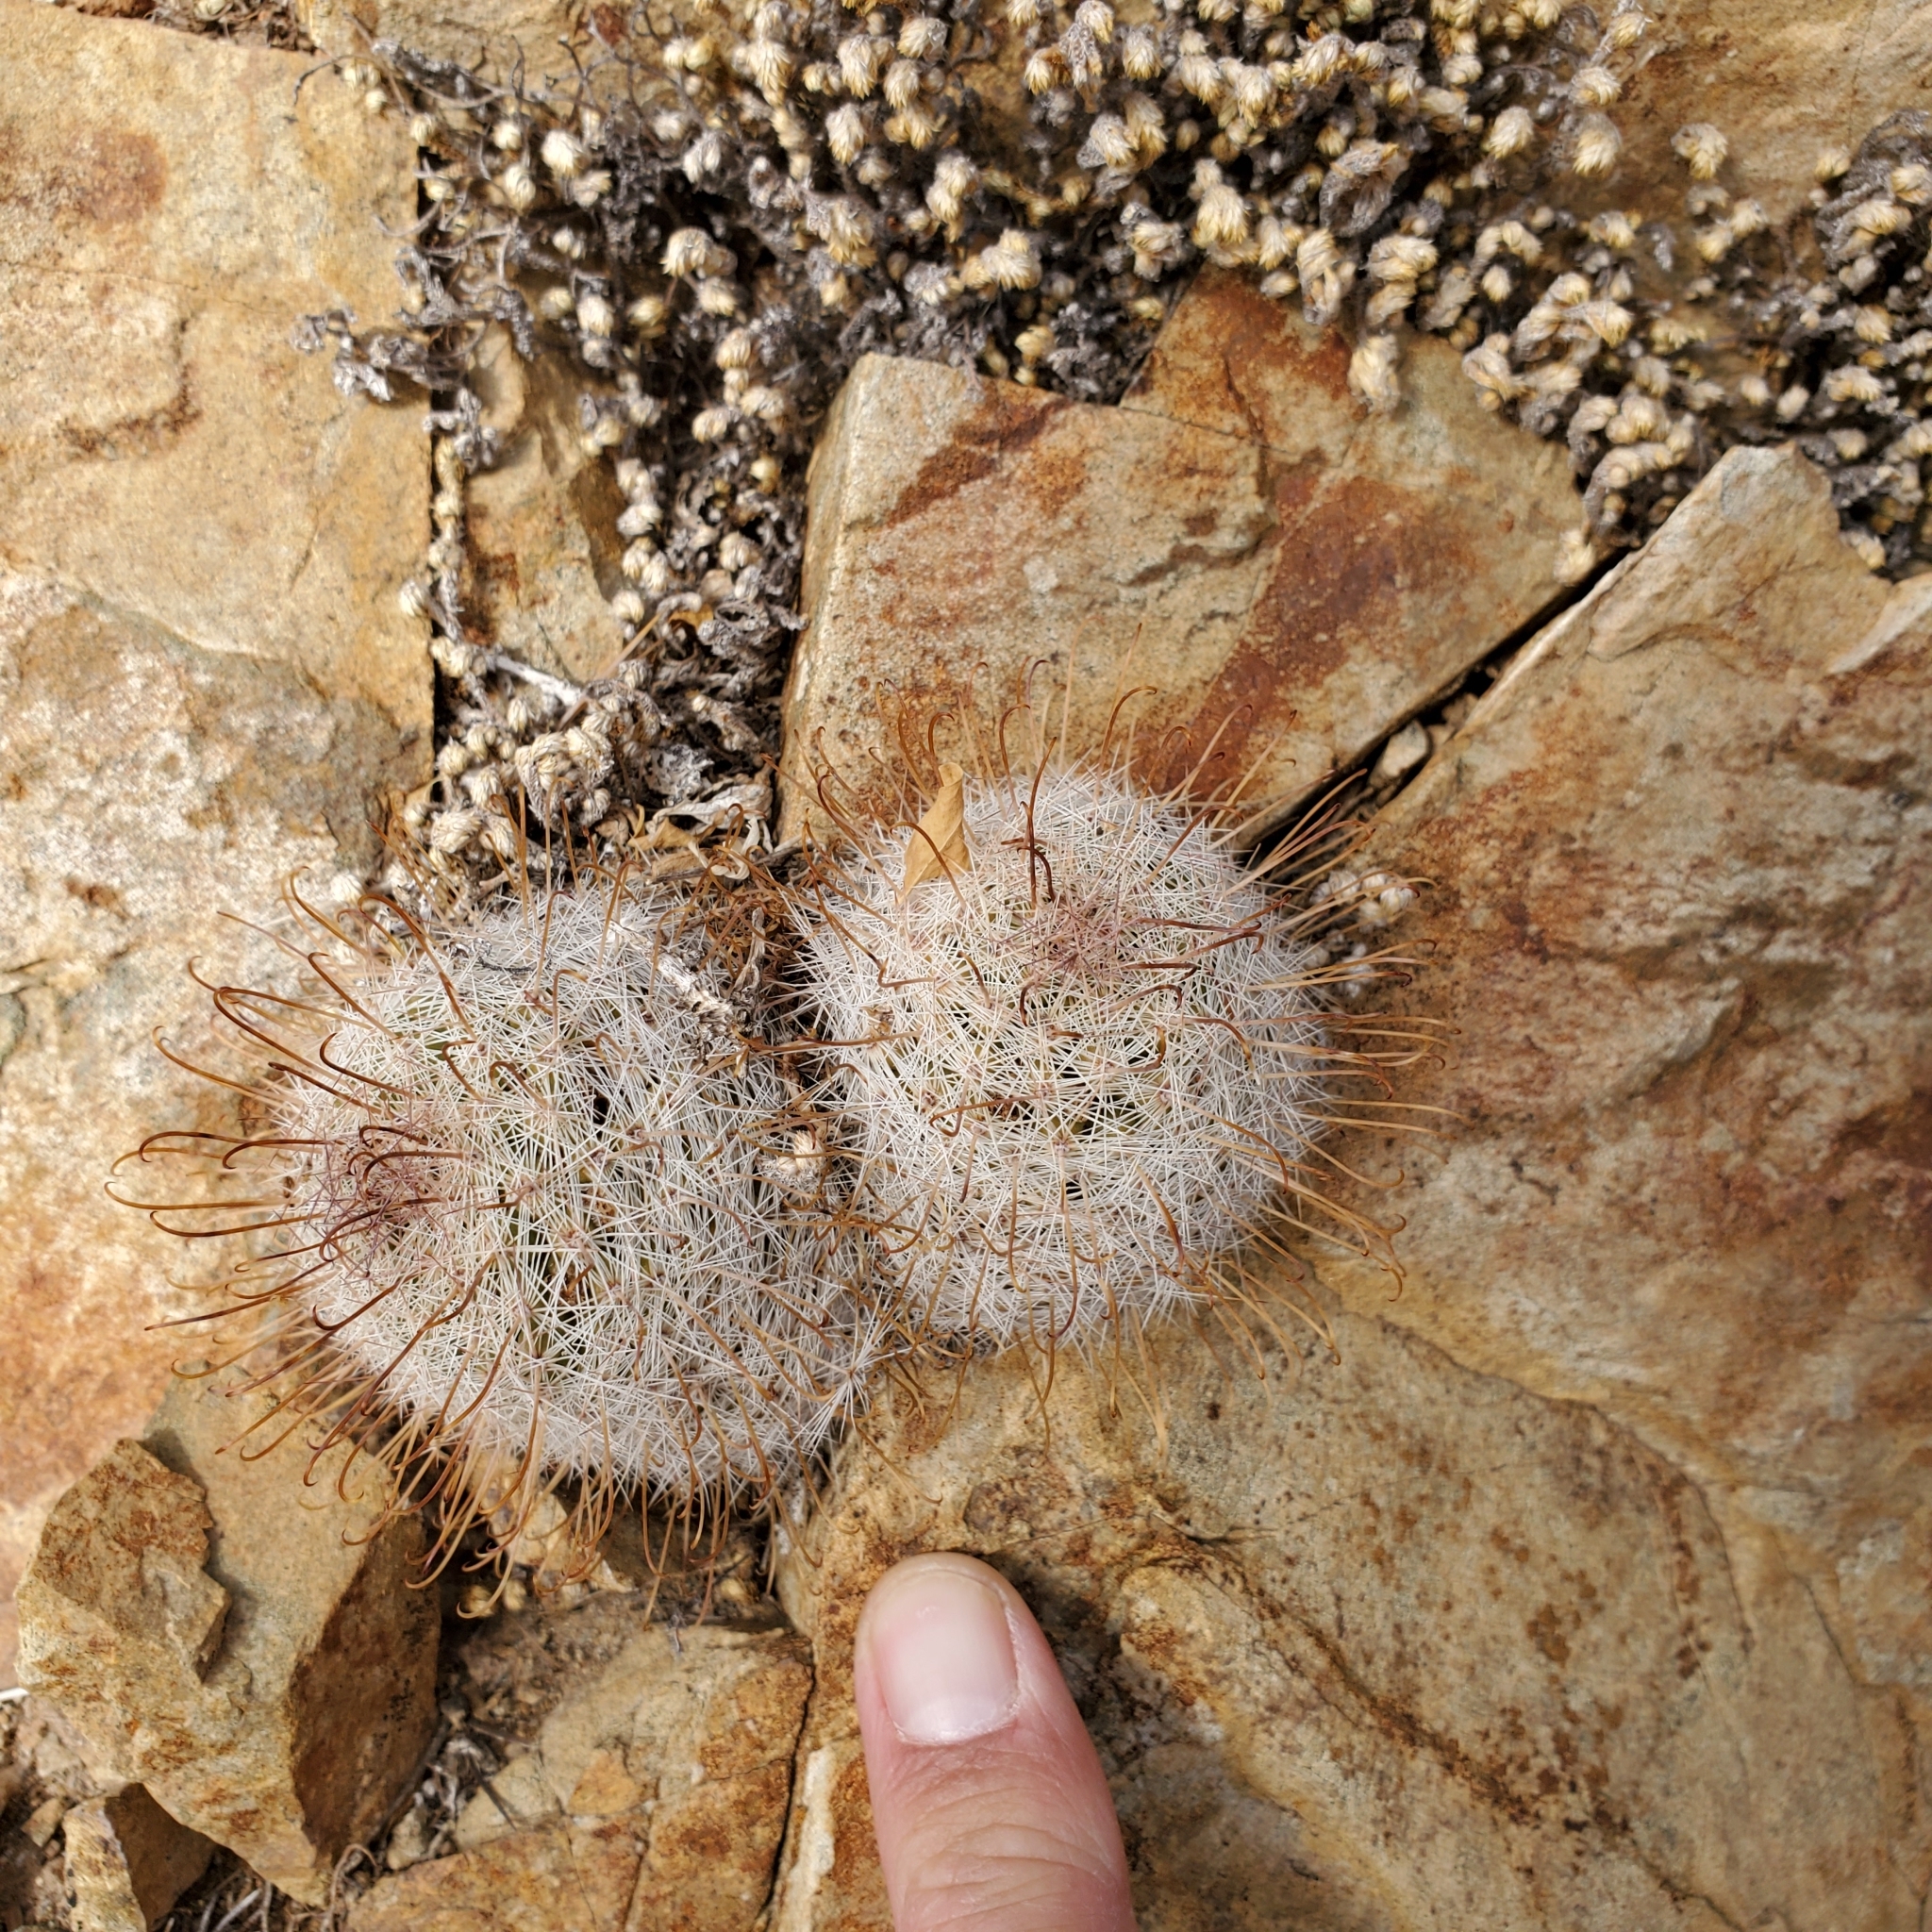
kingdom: Plantae
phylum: Tracheophyta
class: Magnoliopsida
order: Caryophyllales
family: Cactaceae
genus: Cochemiea
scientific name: Cochemiea grahamii
